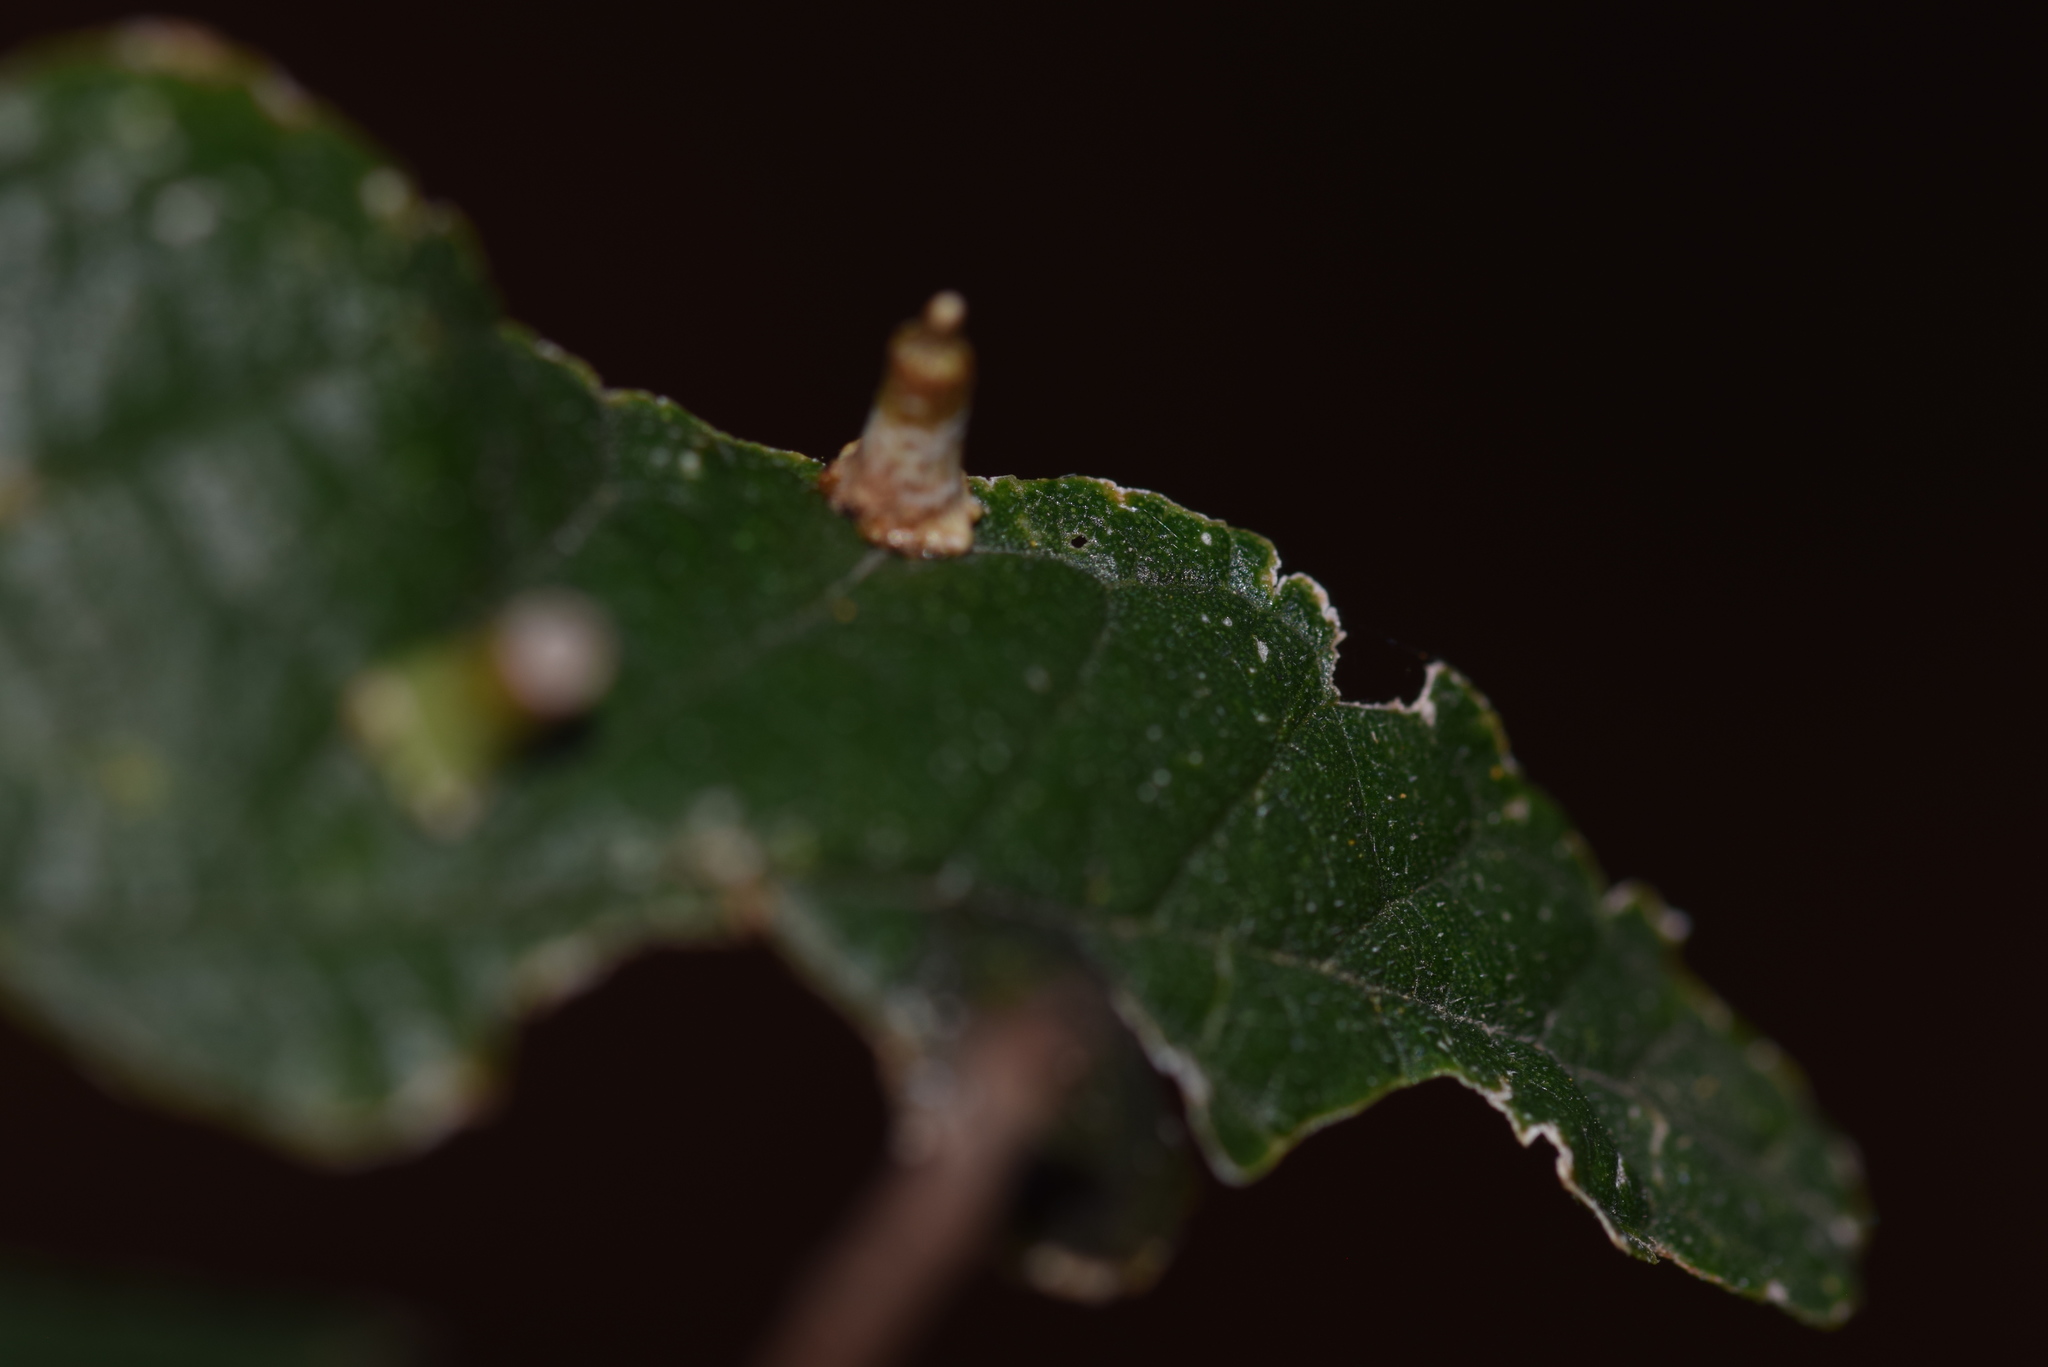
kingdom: Animalia
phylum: Arthropoda
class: Insecta
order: Diptera
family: Cecidomyiidae
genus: Celticecis
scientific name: Celticecis aciculata
